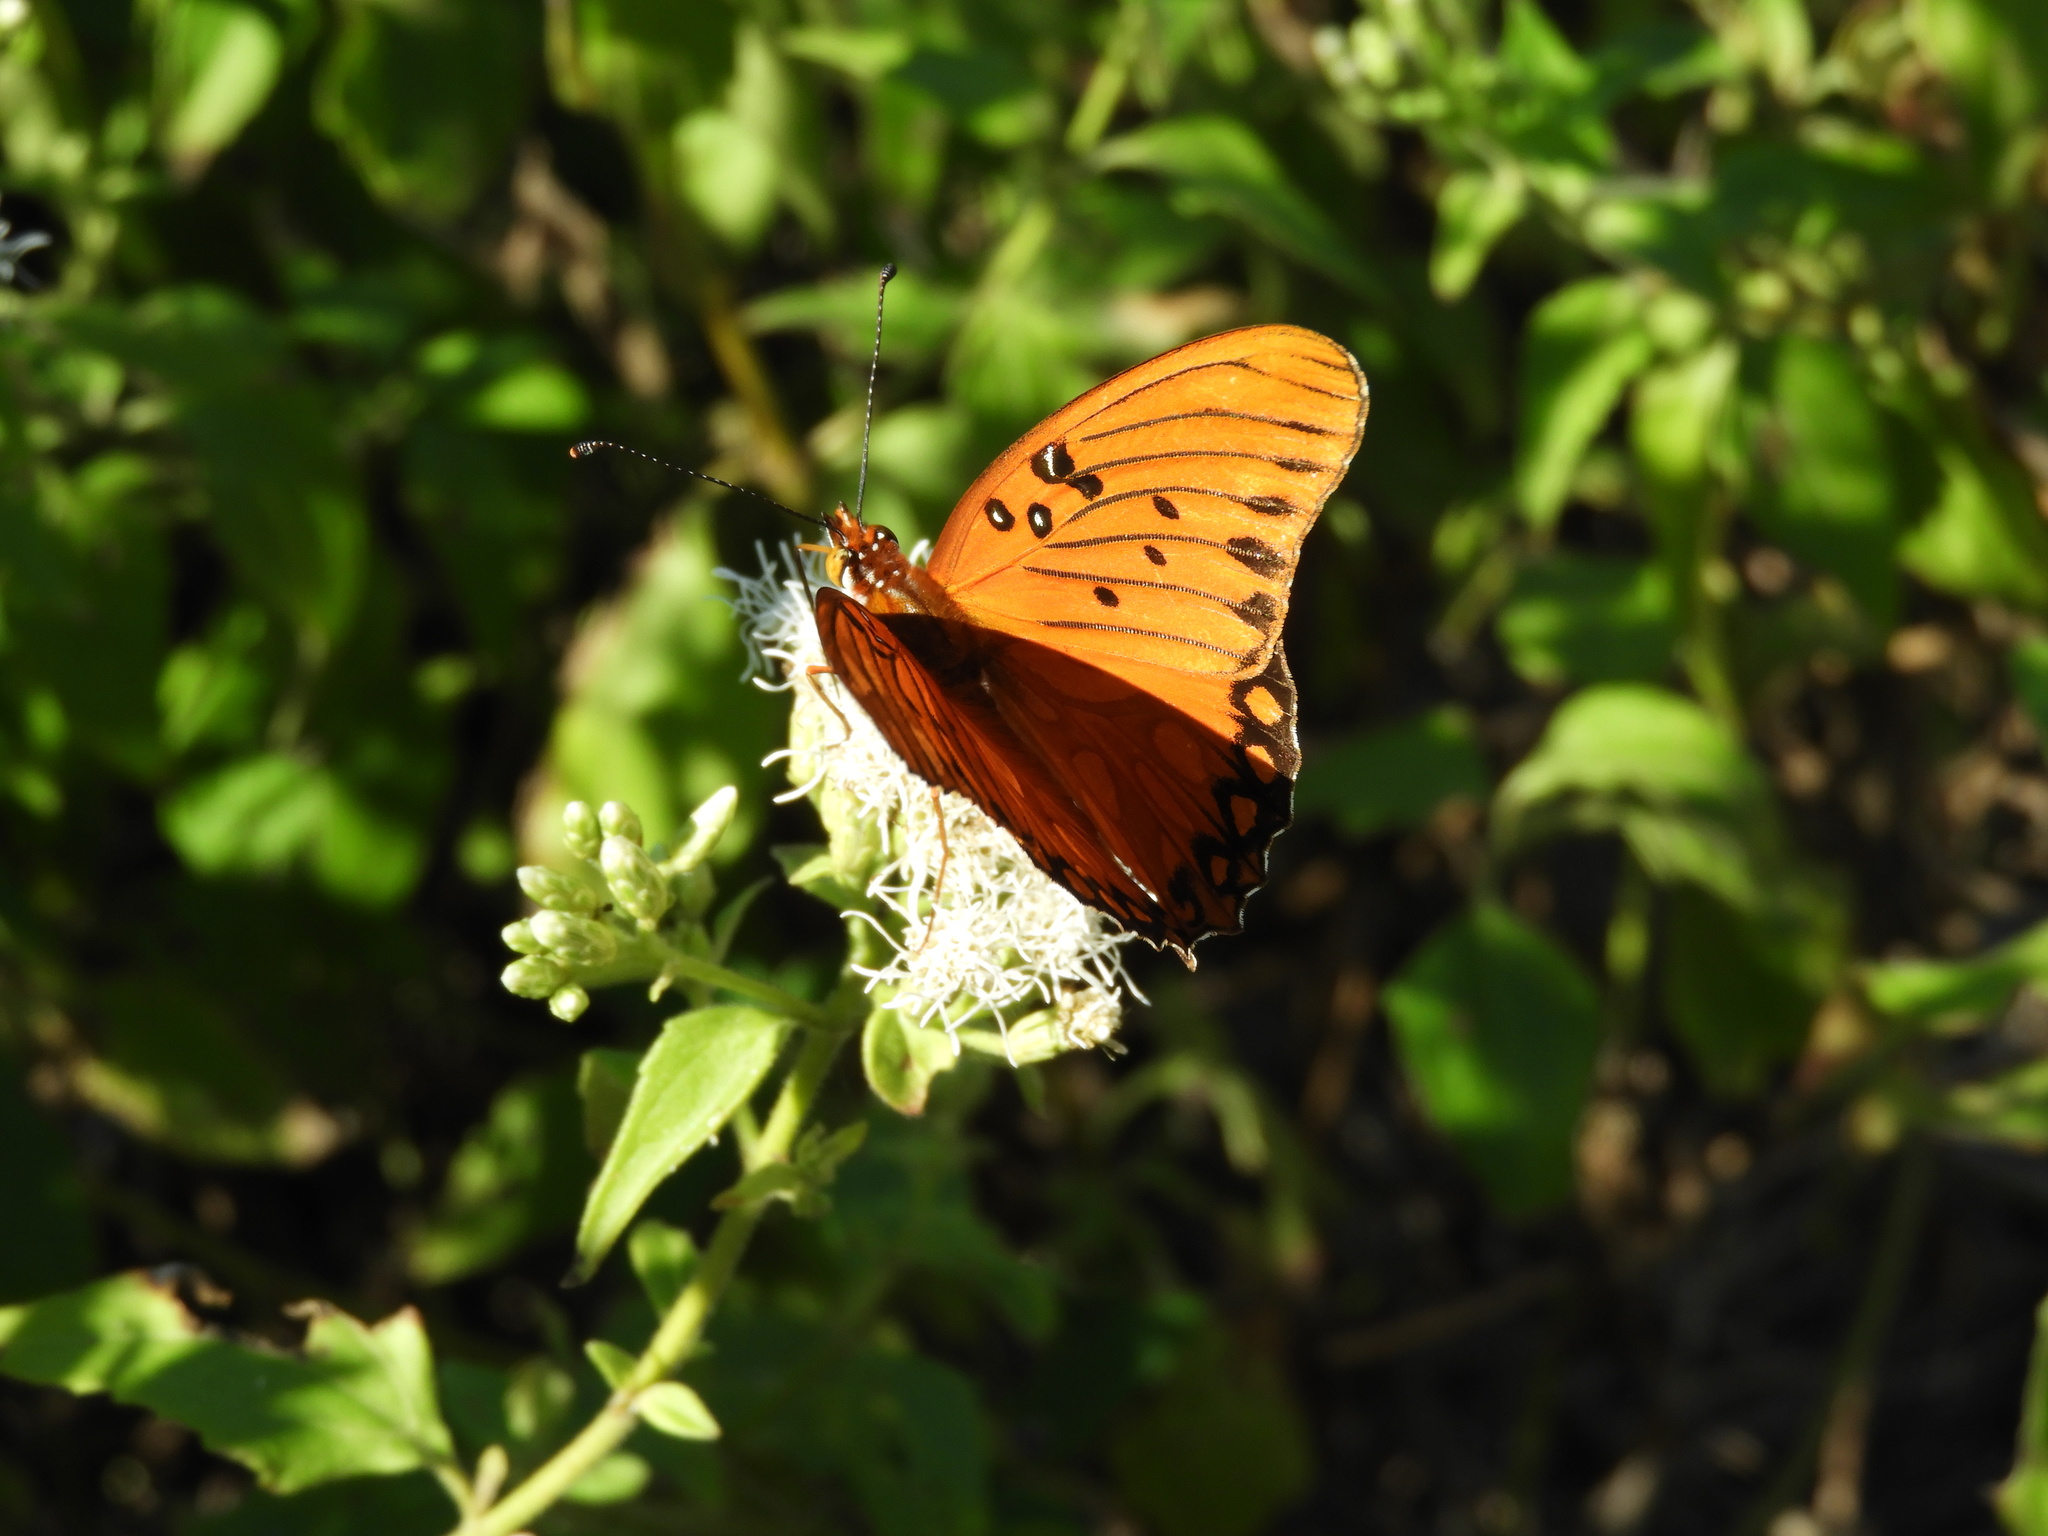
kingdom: Animalia
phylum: Arthropoda
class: Insecta
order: Lepidoptera
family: Nymphalidae
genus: Dione
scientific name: Dione vanillae
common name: Gulf fritillary
